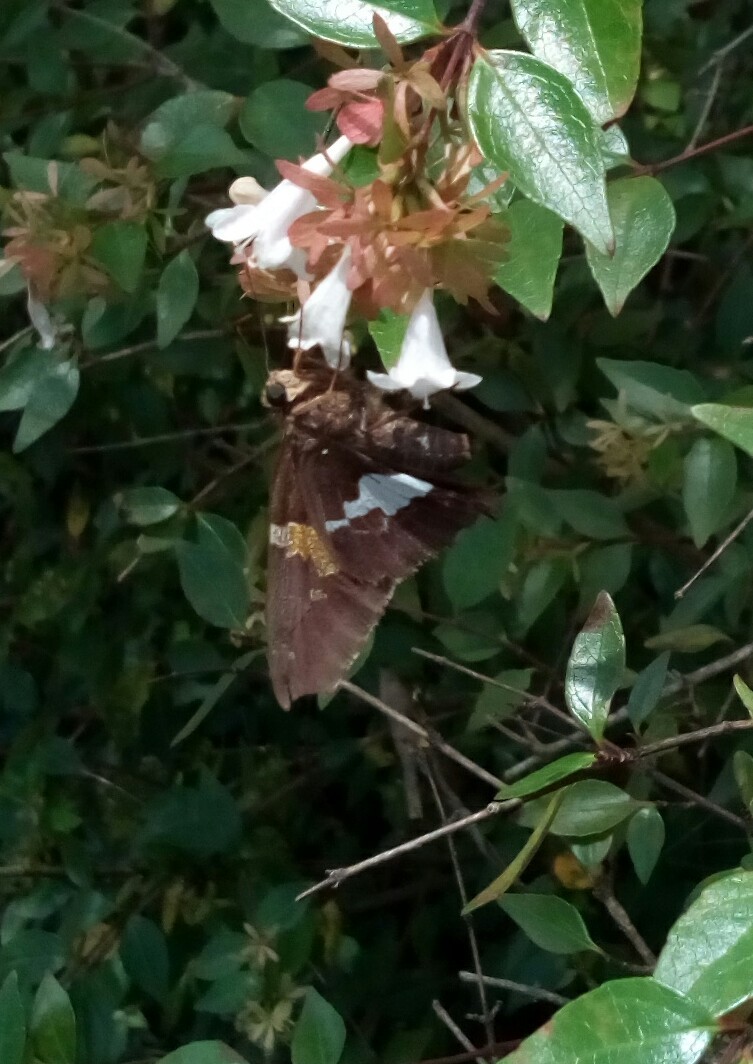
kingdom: Animalia
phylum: Arthropoda
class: Insecta
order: Lepidoptera
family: Hesperiidae
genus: Epargyreus
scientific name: Epargyreus clarus
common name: Silver-spotted skipper
